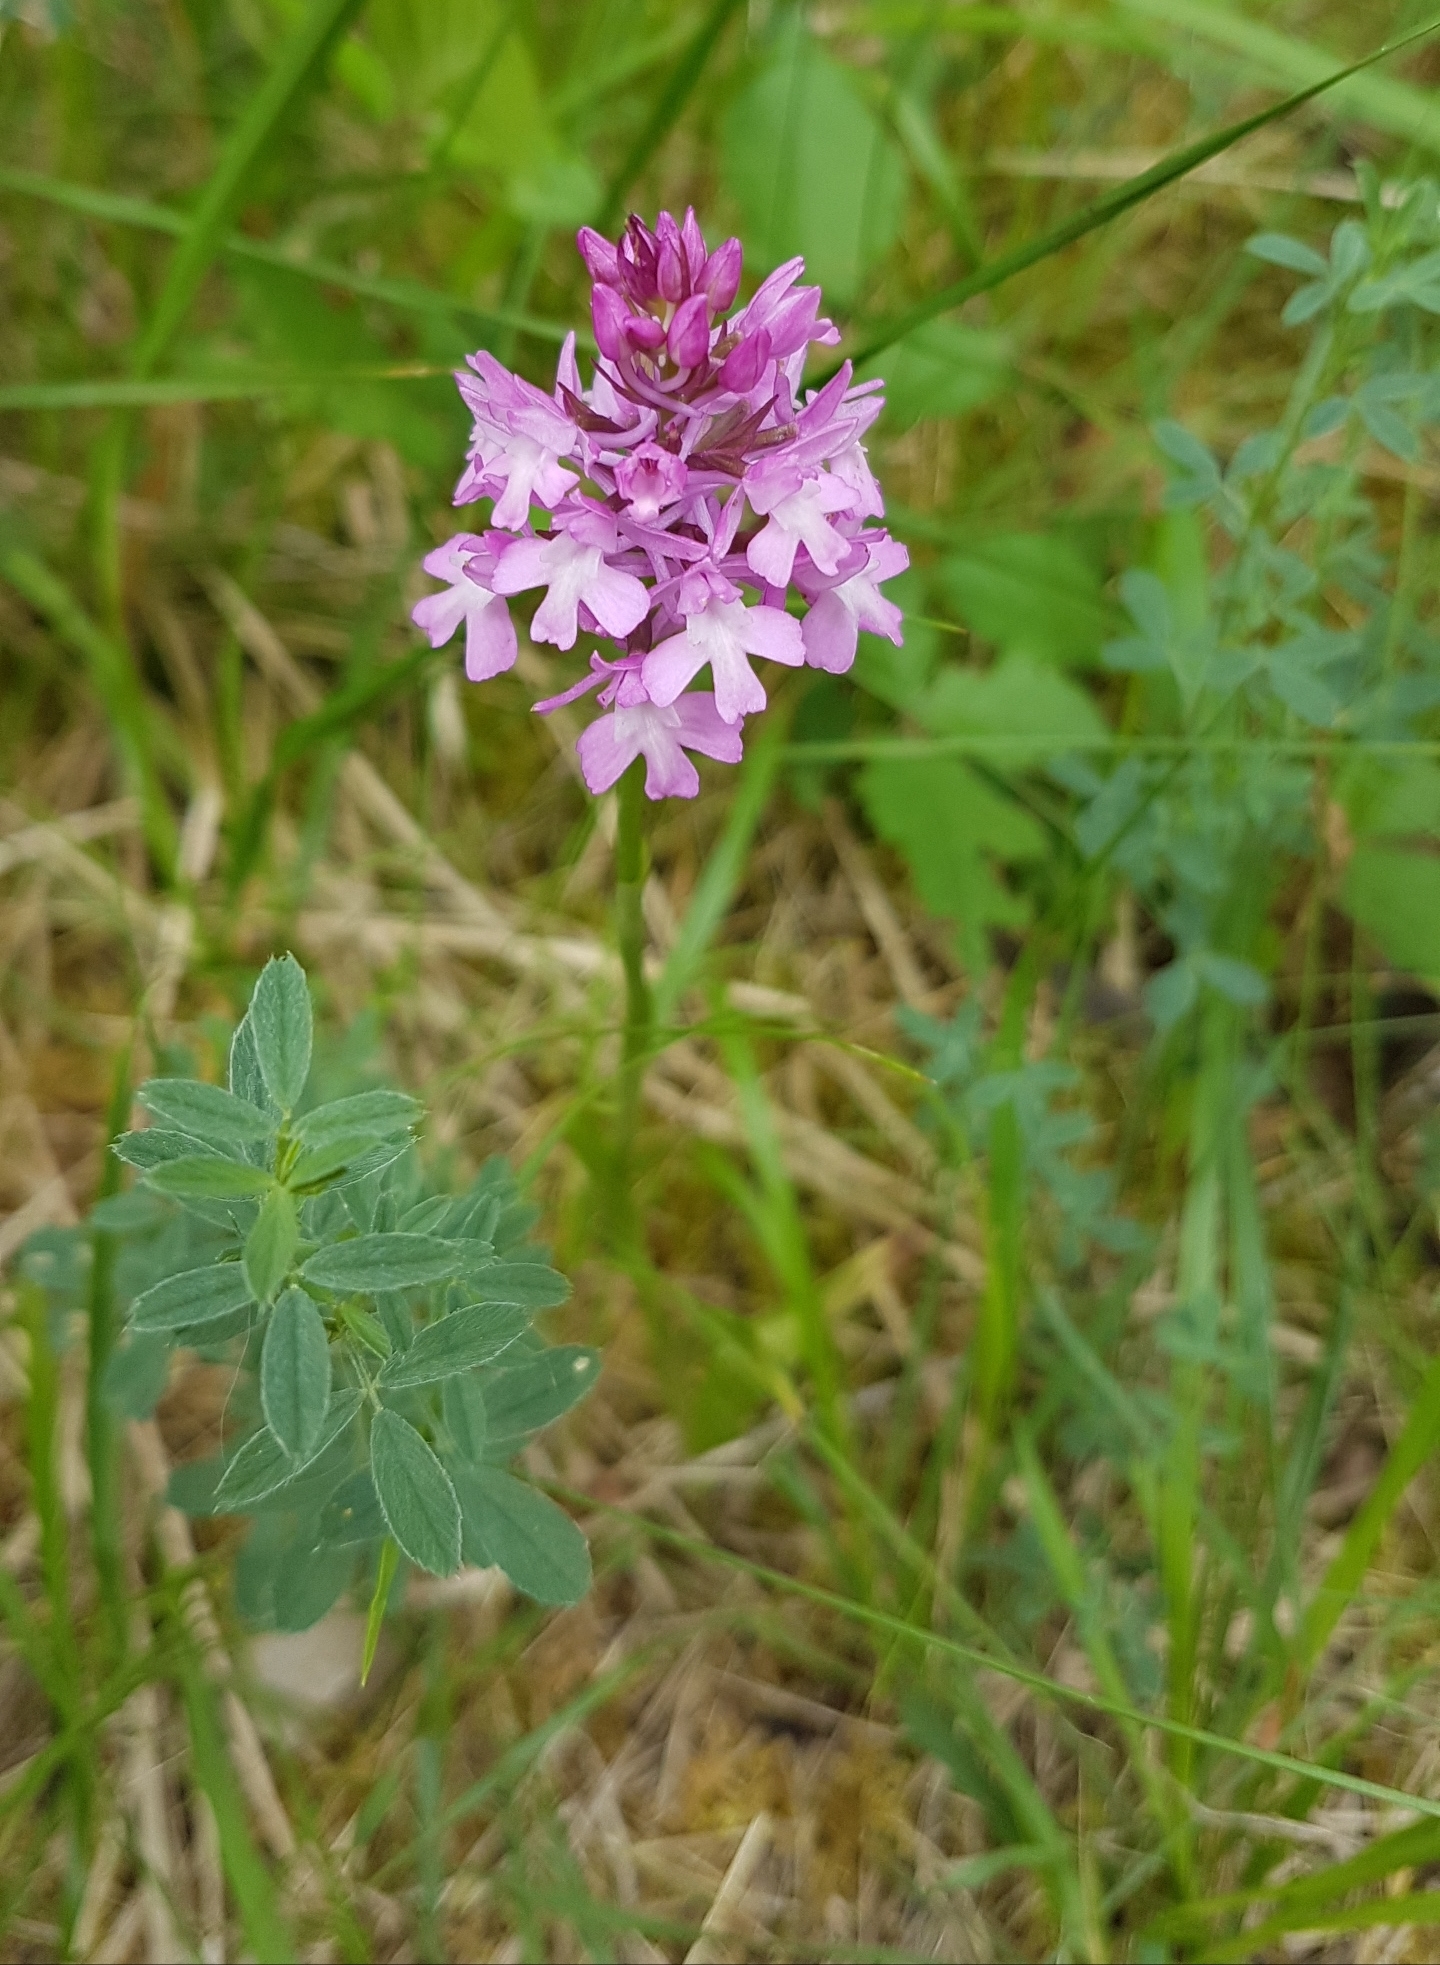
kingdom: Plantae
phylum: Tracheophyta
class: Liliopsida
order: Asparagales
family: Orchidaceae
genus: Anacamptis
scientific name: Anacamptis pyramidalis
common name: Pyramidal orchid
